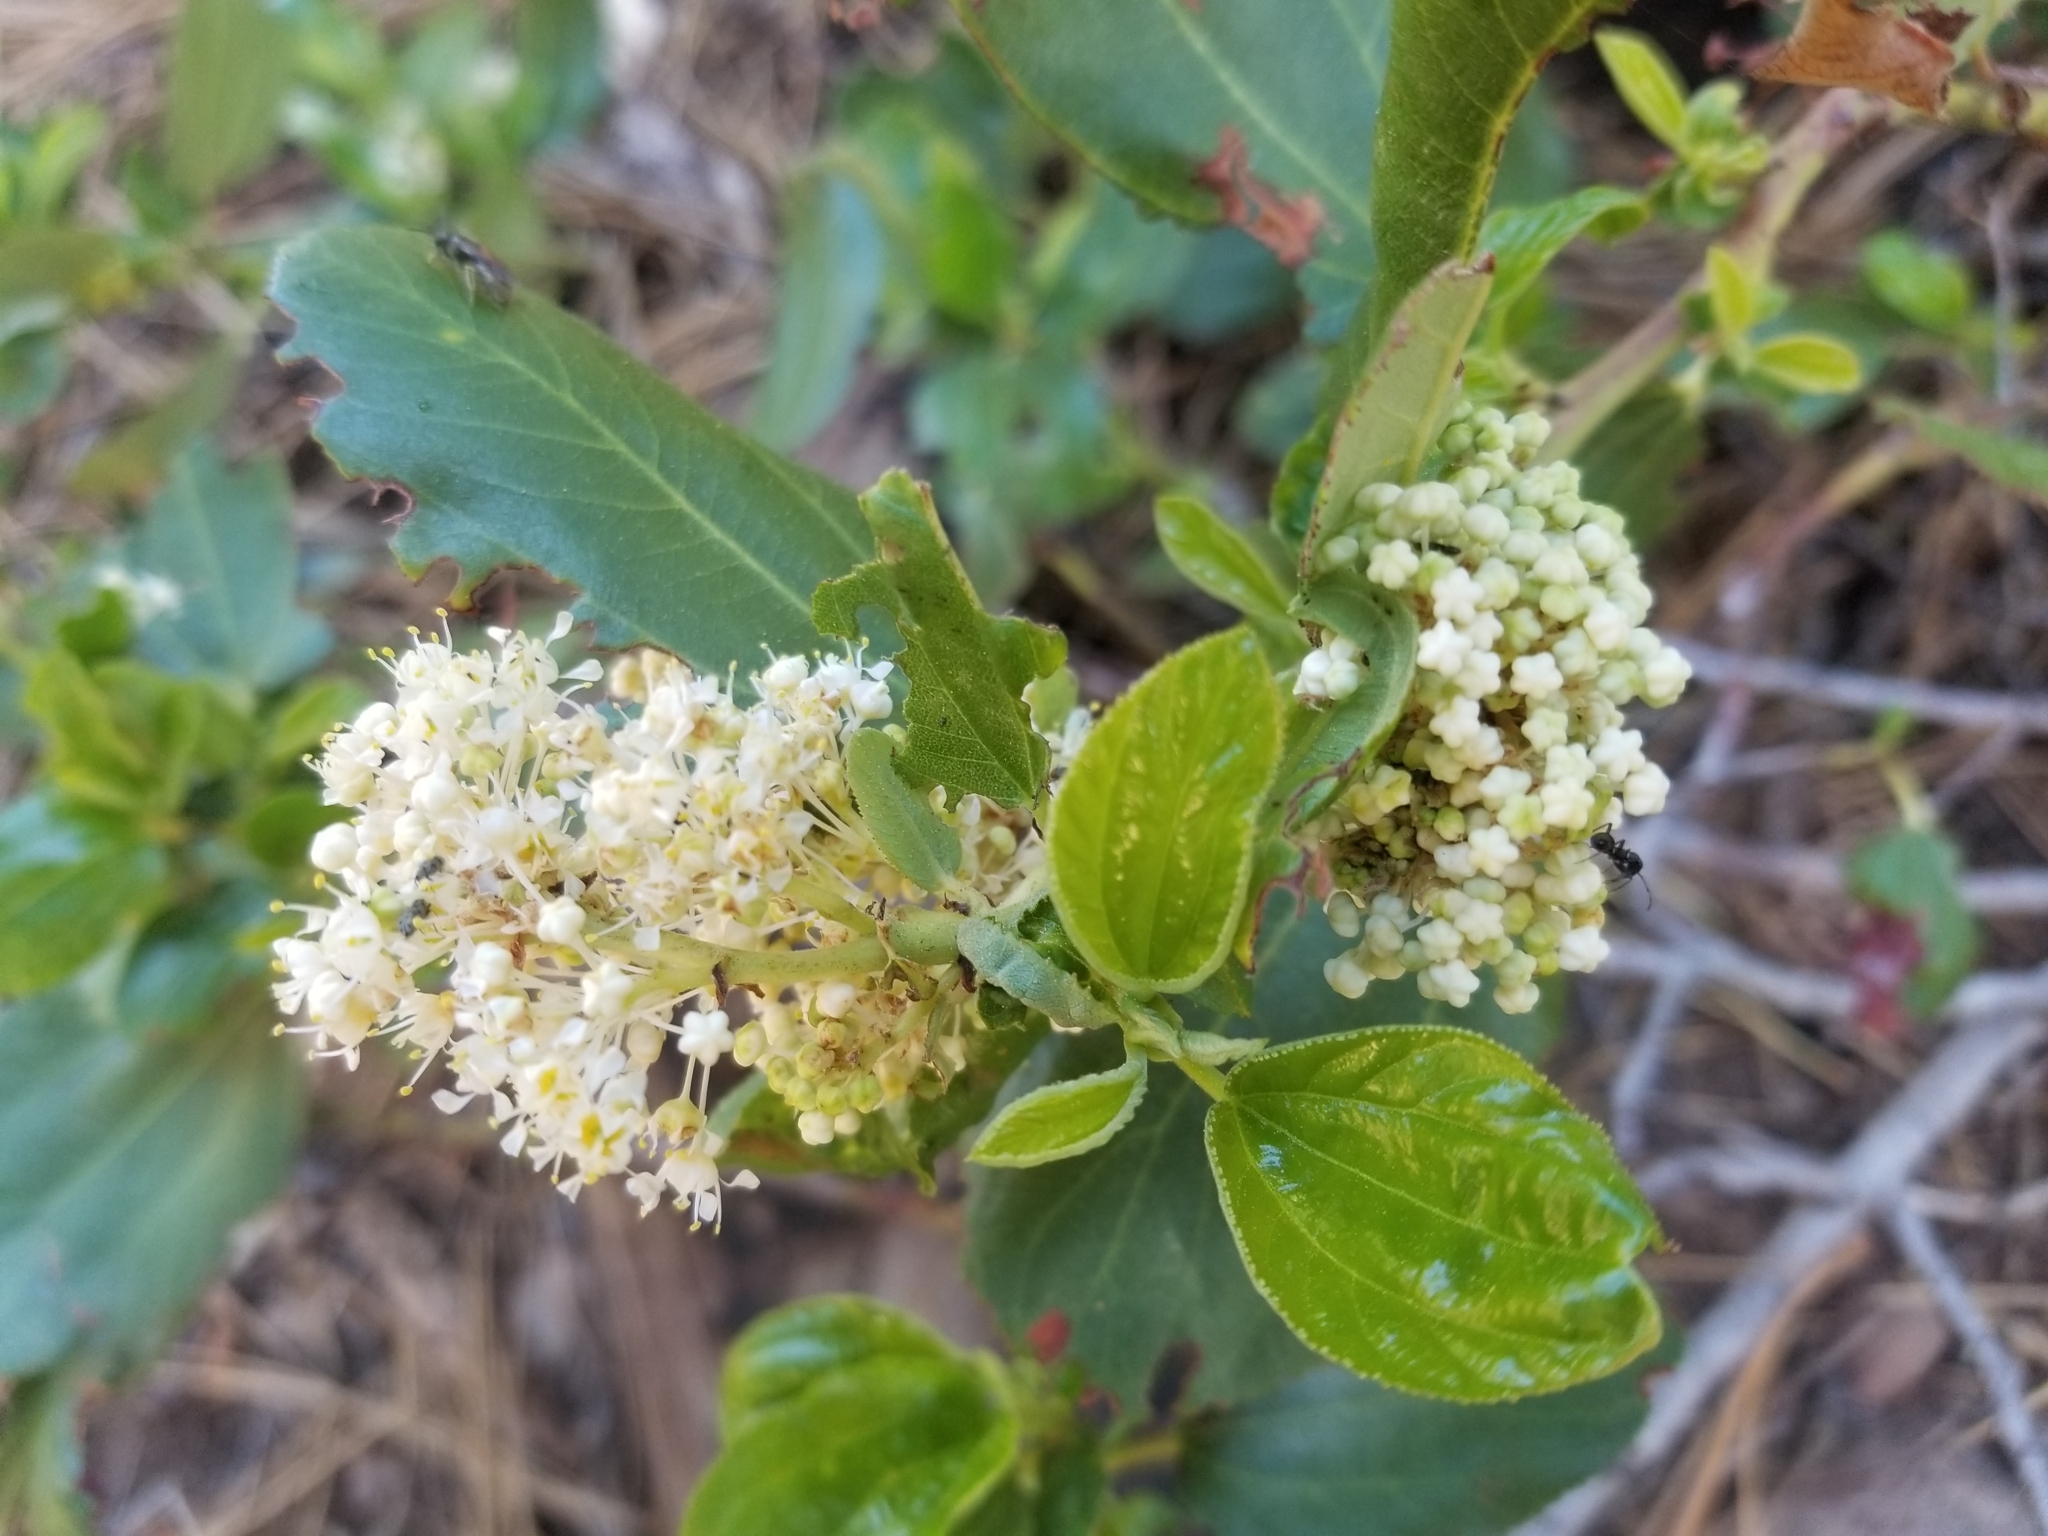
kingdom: Plantae
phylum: Tracheophyta
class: Magnoliopsida
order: Rosales
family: Rhamnaceae
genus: Ceanothus
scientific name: Ceanothus velutinus
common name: Snowbrush
